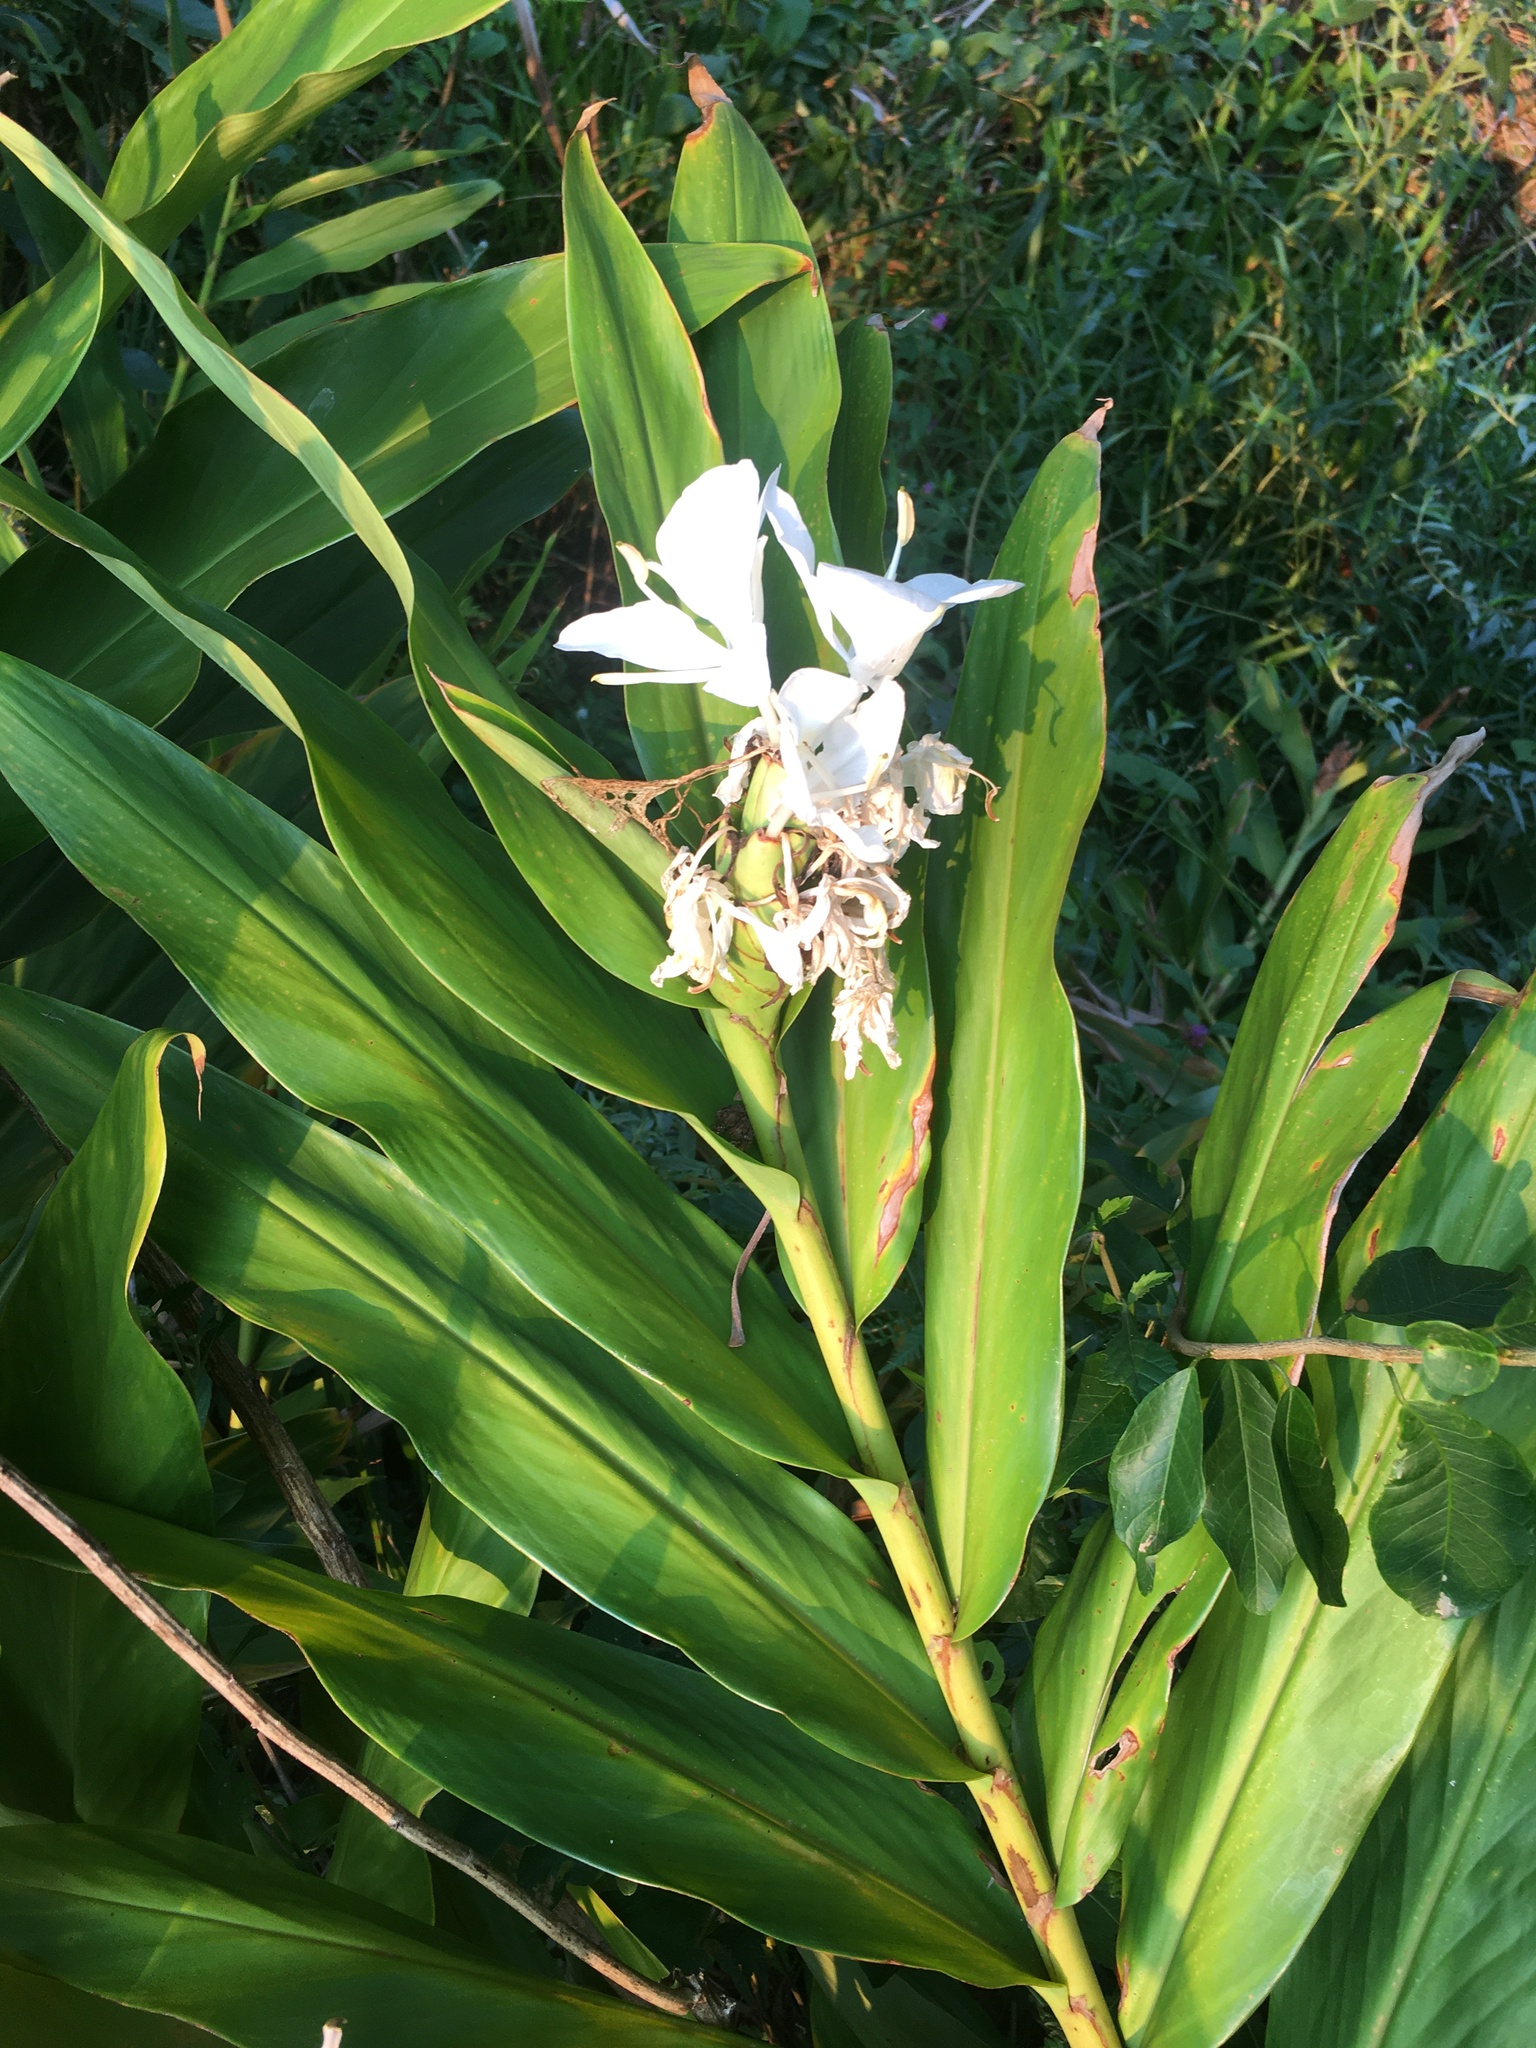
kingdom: Plantae
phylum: Tracheophyta
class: Liliopsida
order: Zingiberales
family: Zingiberaceae
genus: Hedychium
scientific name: Hedychium coronarium
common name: White garland-lily
